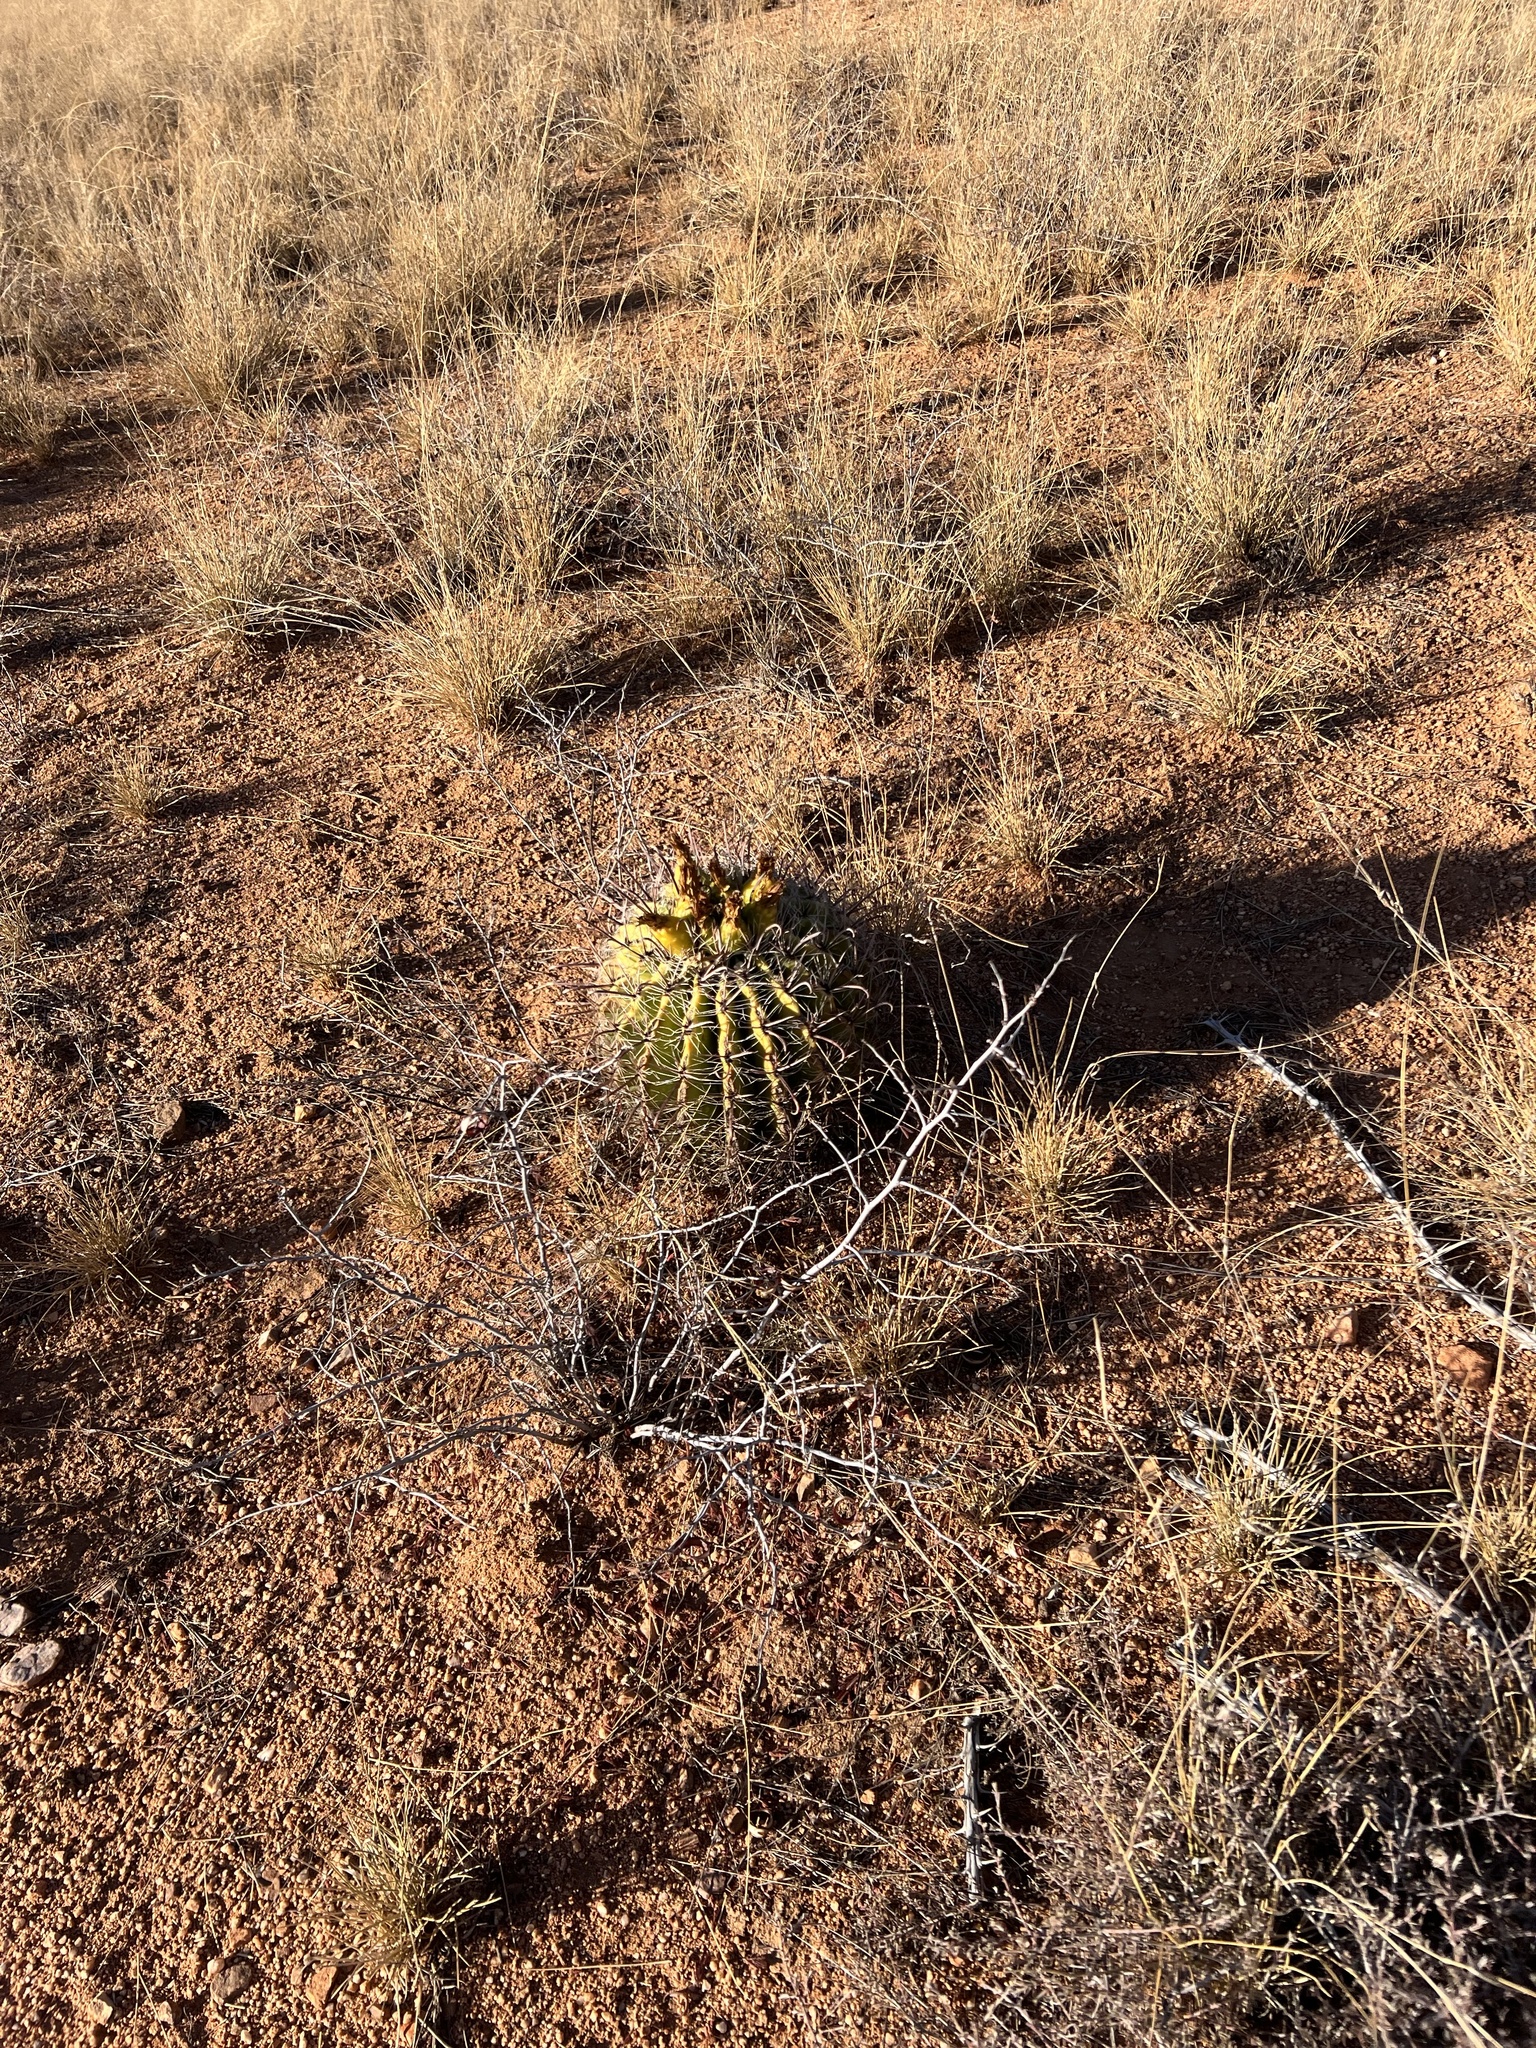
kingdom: Plantae
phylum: Tracheophyta
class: Magnoliopsida
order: Caryophyllales
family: Cactaceae
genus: Ferocactus
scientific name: Ferocactus wislizeni
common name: Candy barrel cactus
